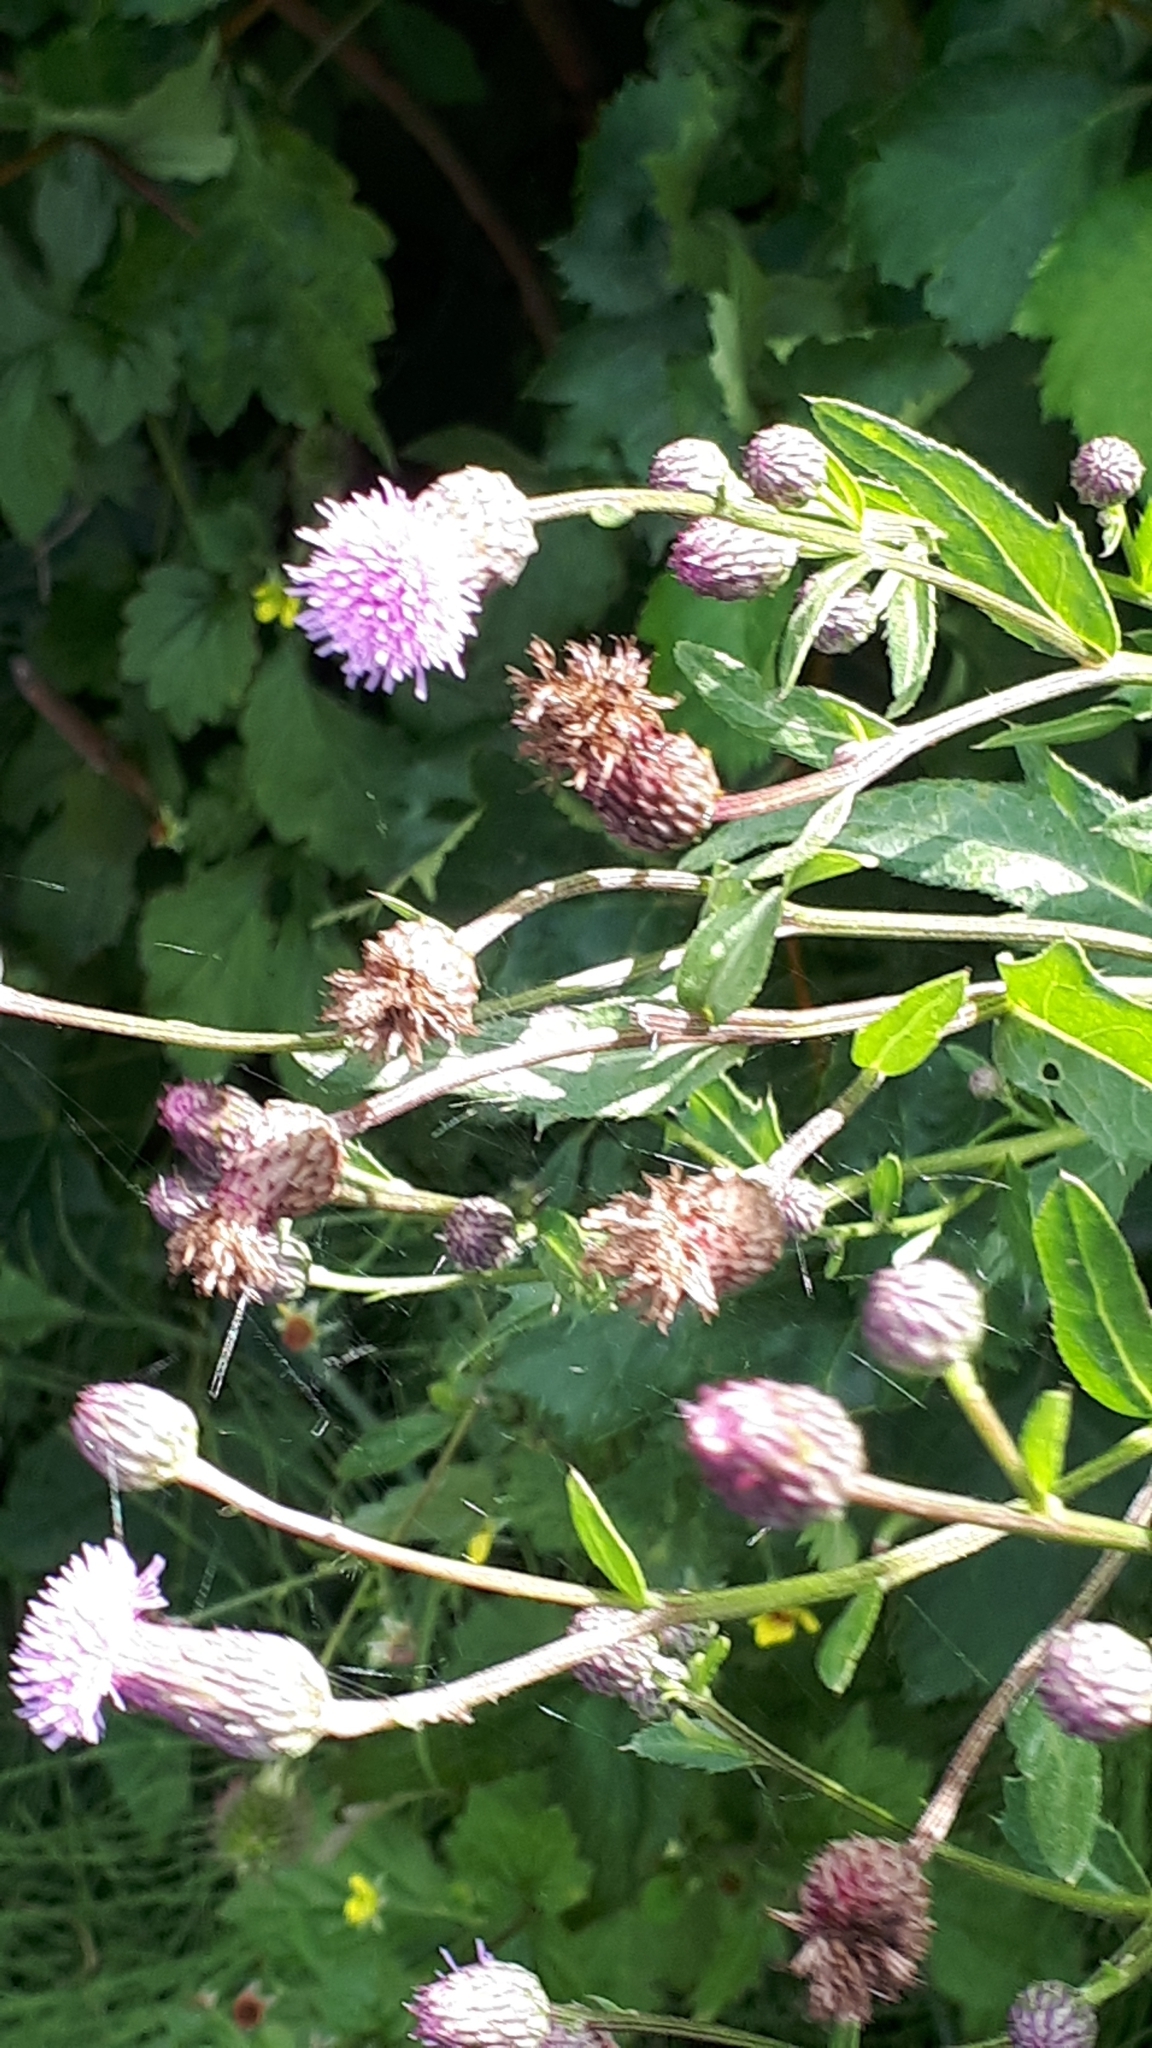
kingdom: Plantae
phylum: Tracheophyta
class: Magnoliopsida
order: Asterales
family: Asteraceae
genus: Cirsium
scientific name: Cirsium arvense
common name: Creeping thistle
